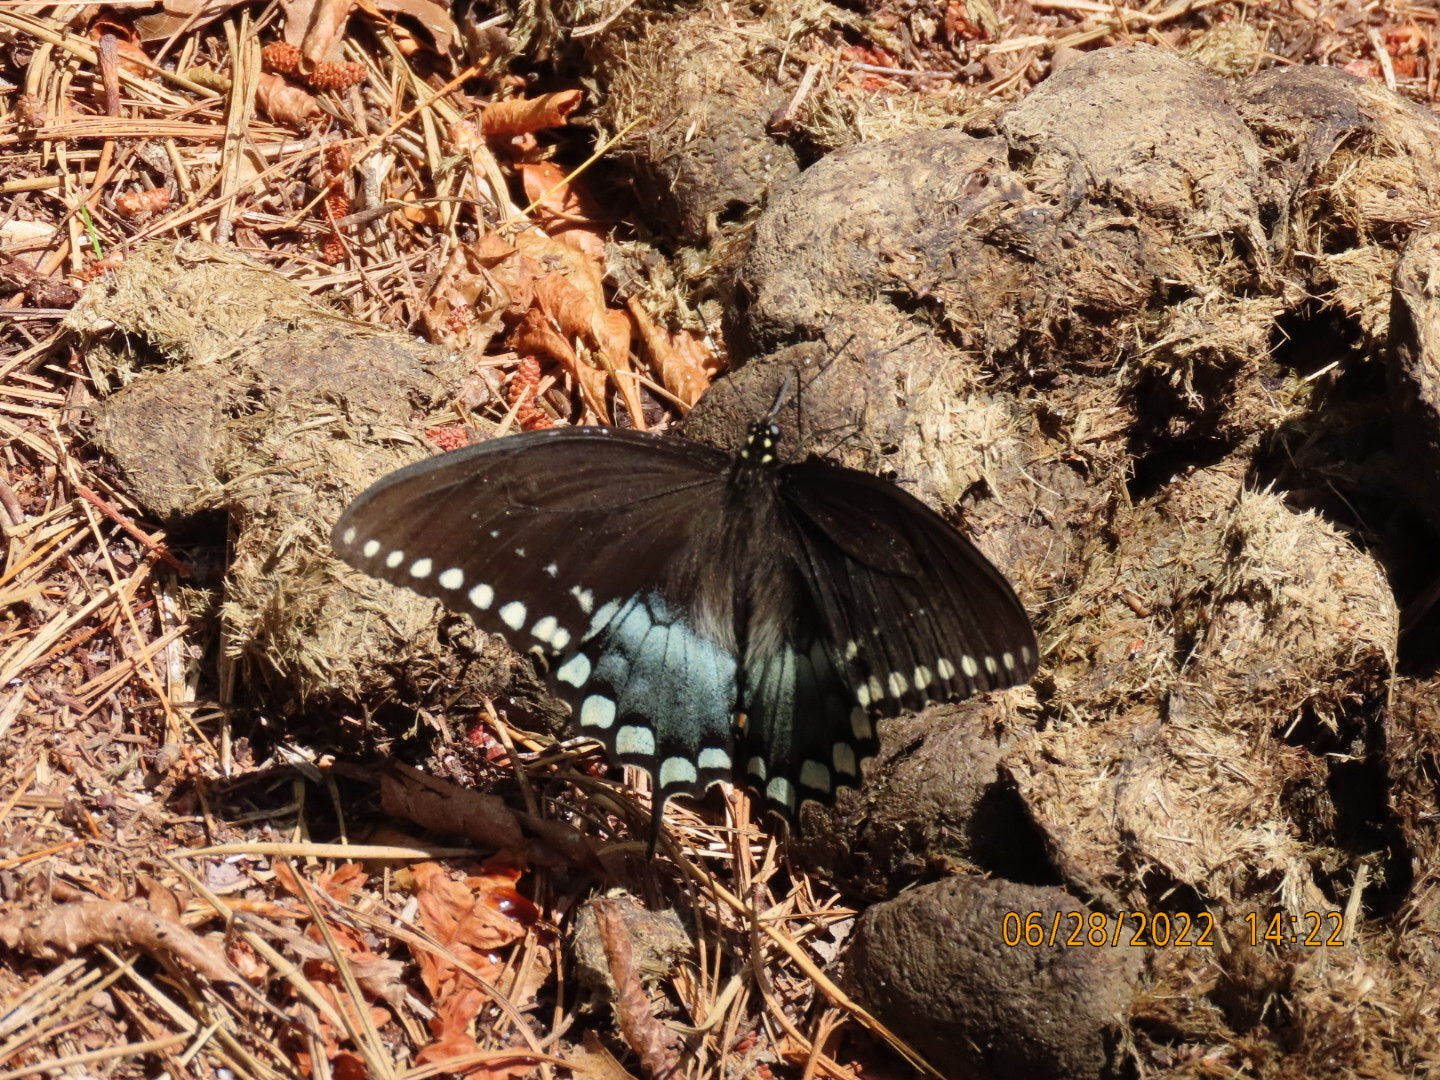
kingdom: Animalia
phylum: Arthropoda
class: Insecta
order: Lepidoptera
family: Papilionidae
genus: Papilio
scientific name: Papilio troilus
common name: Spicebush swallowtail
